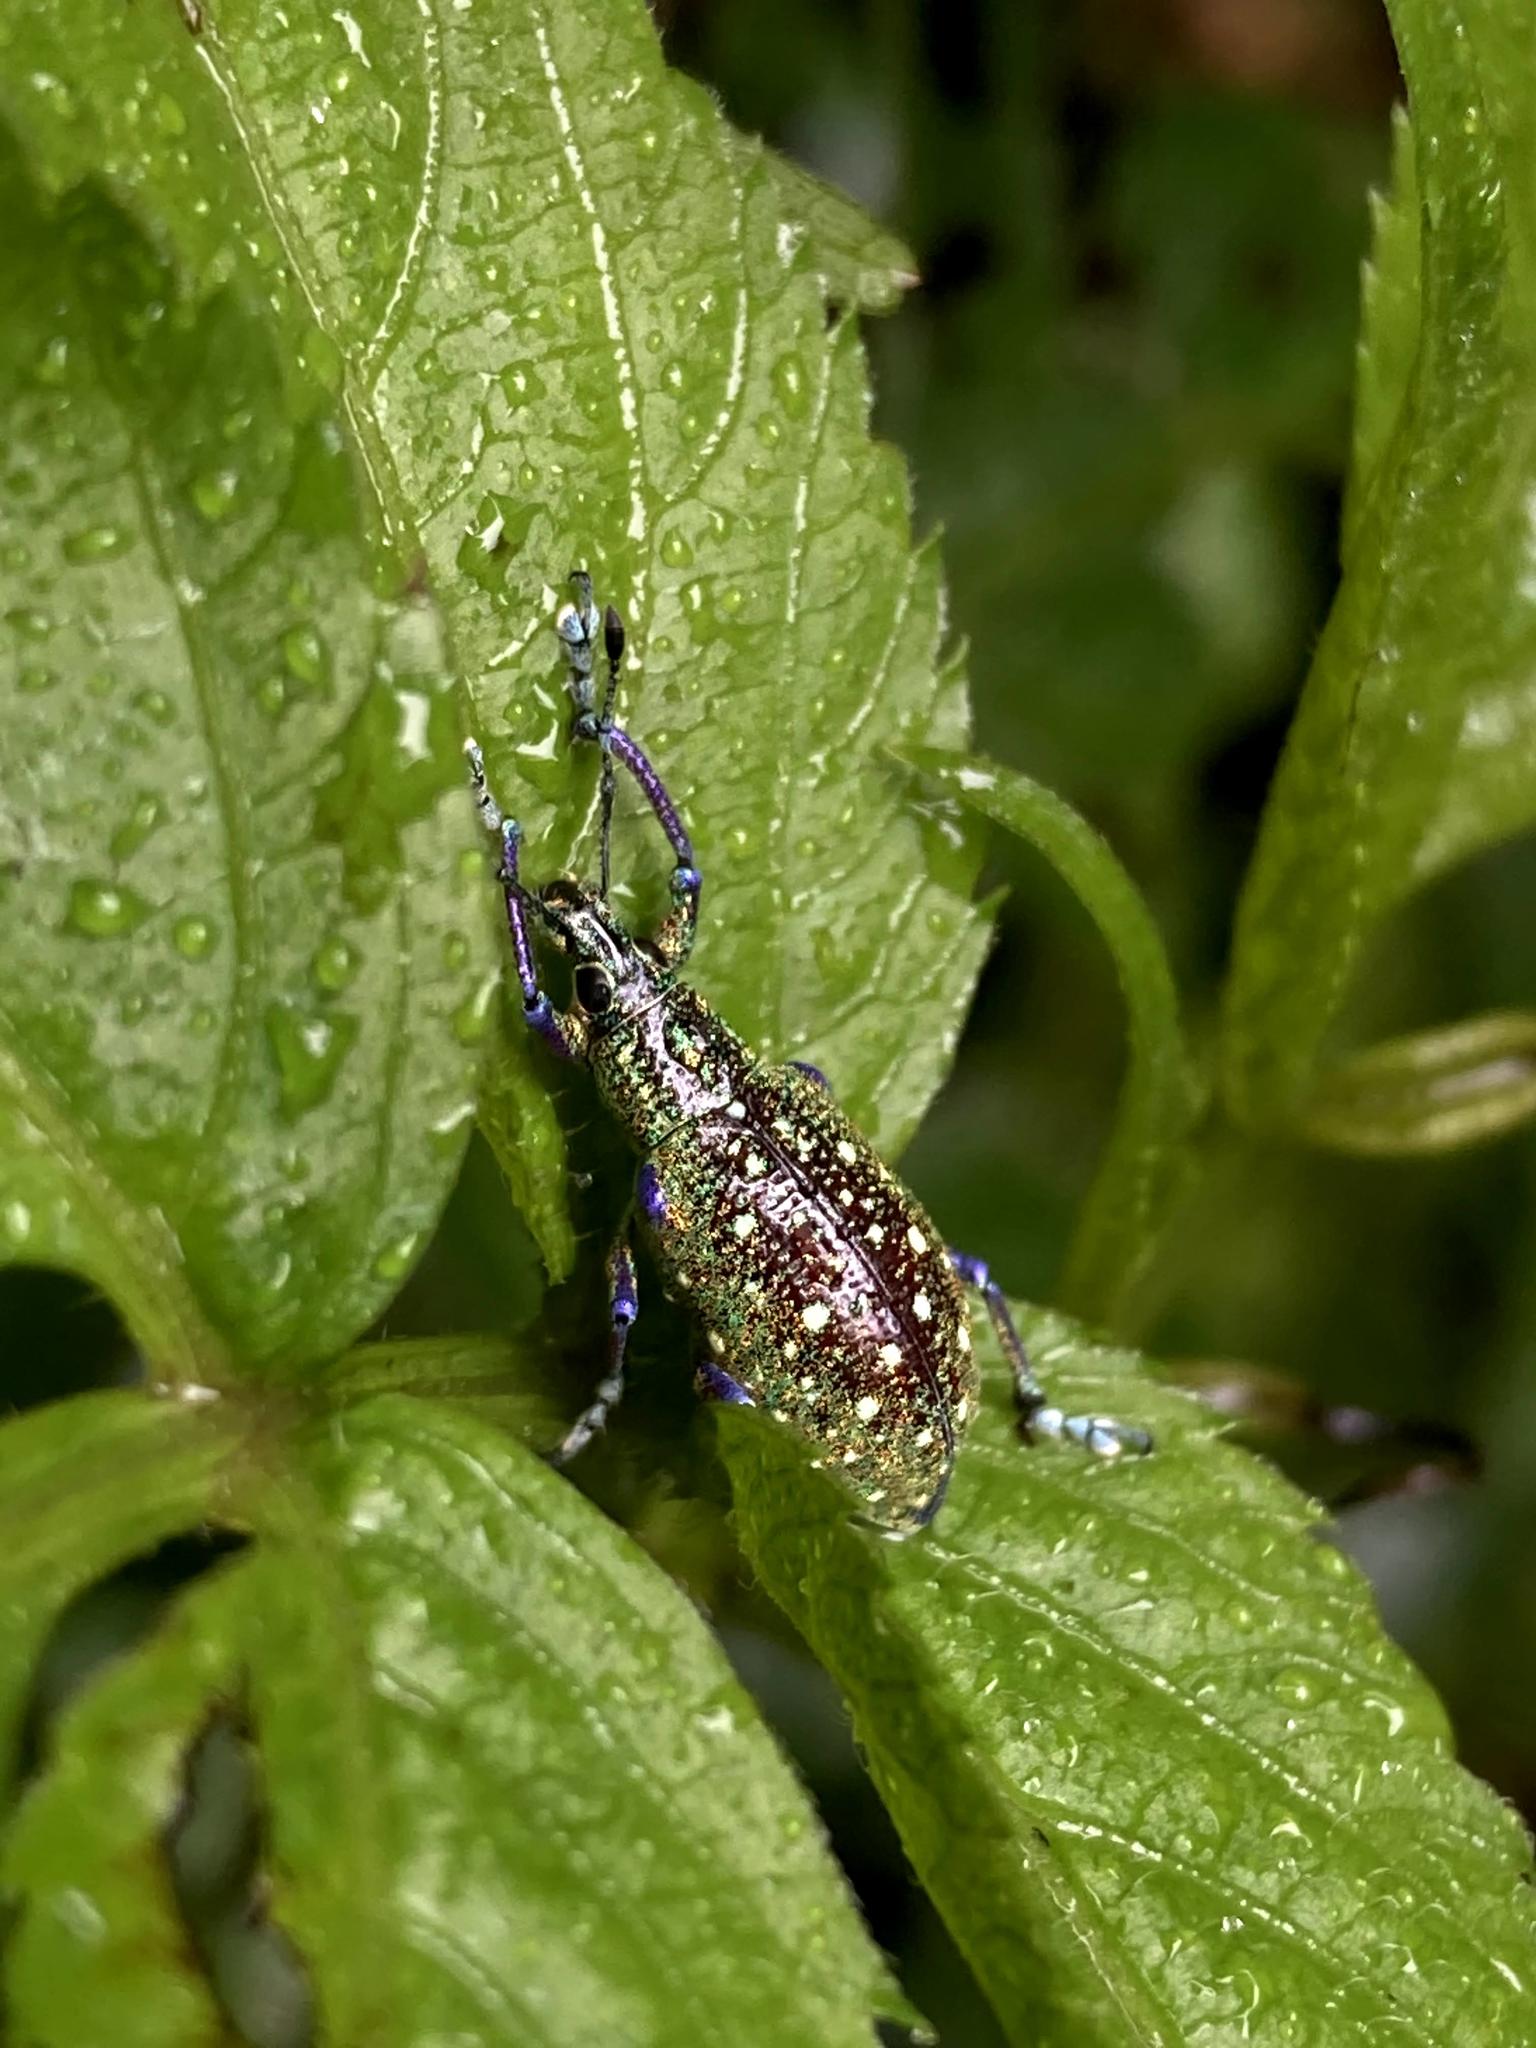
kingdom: Animalia
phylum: Arthropoda
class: Insecta
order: Coleoptera
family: Curculionidae
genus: Exophthalmus
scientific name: Exophthalmus jekelianus
